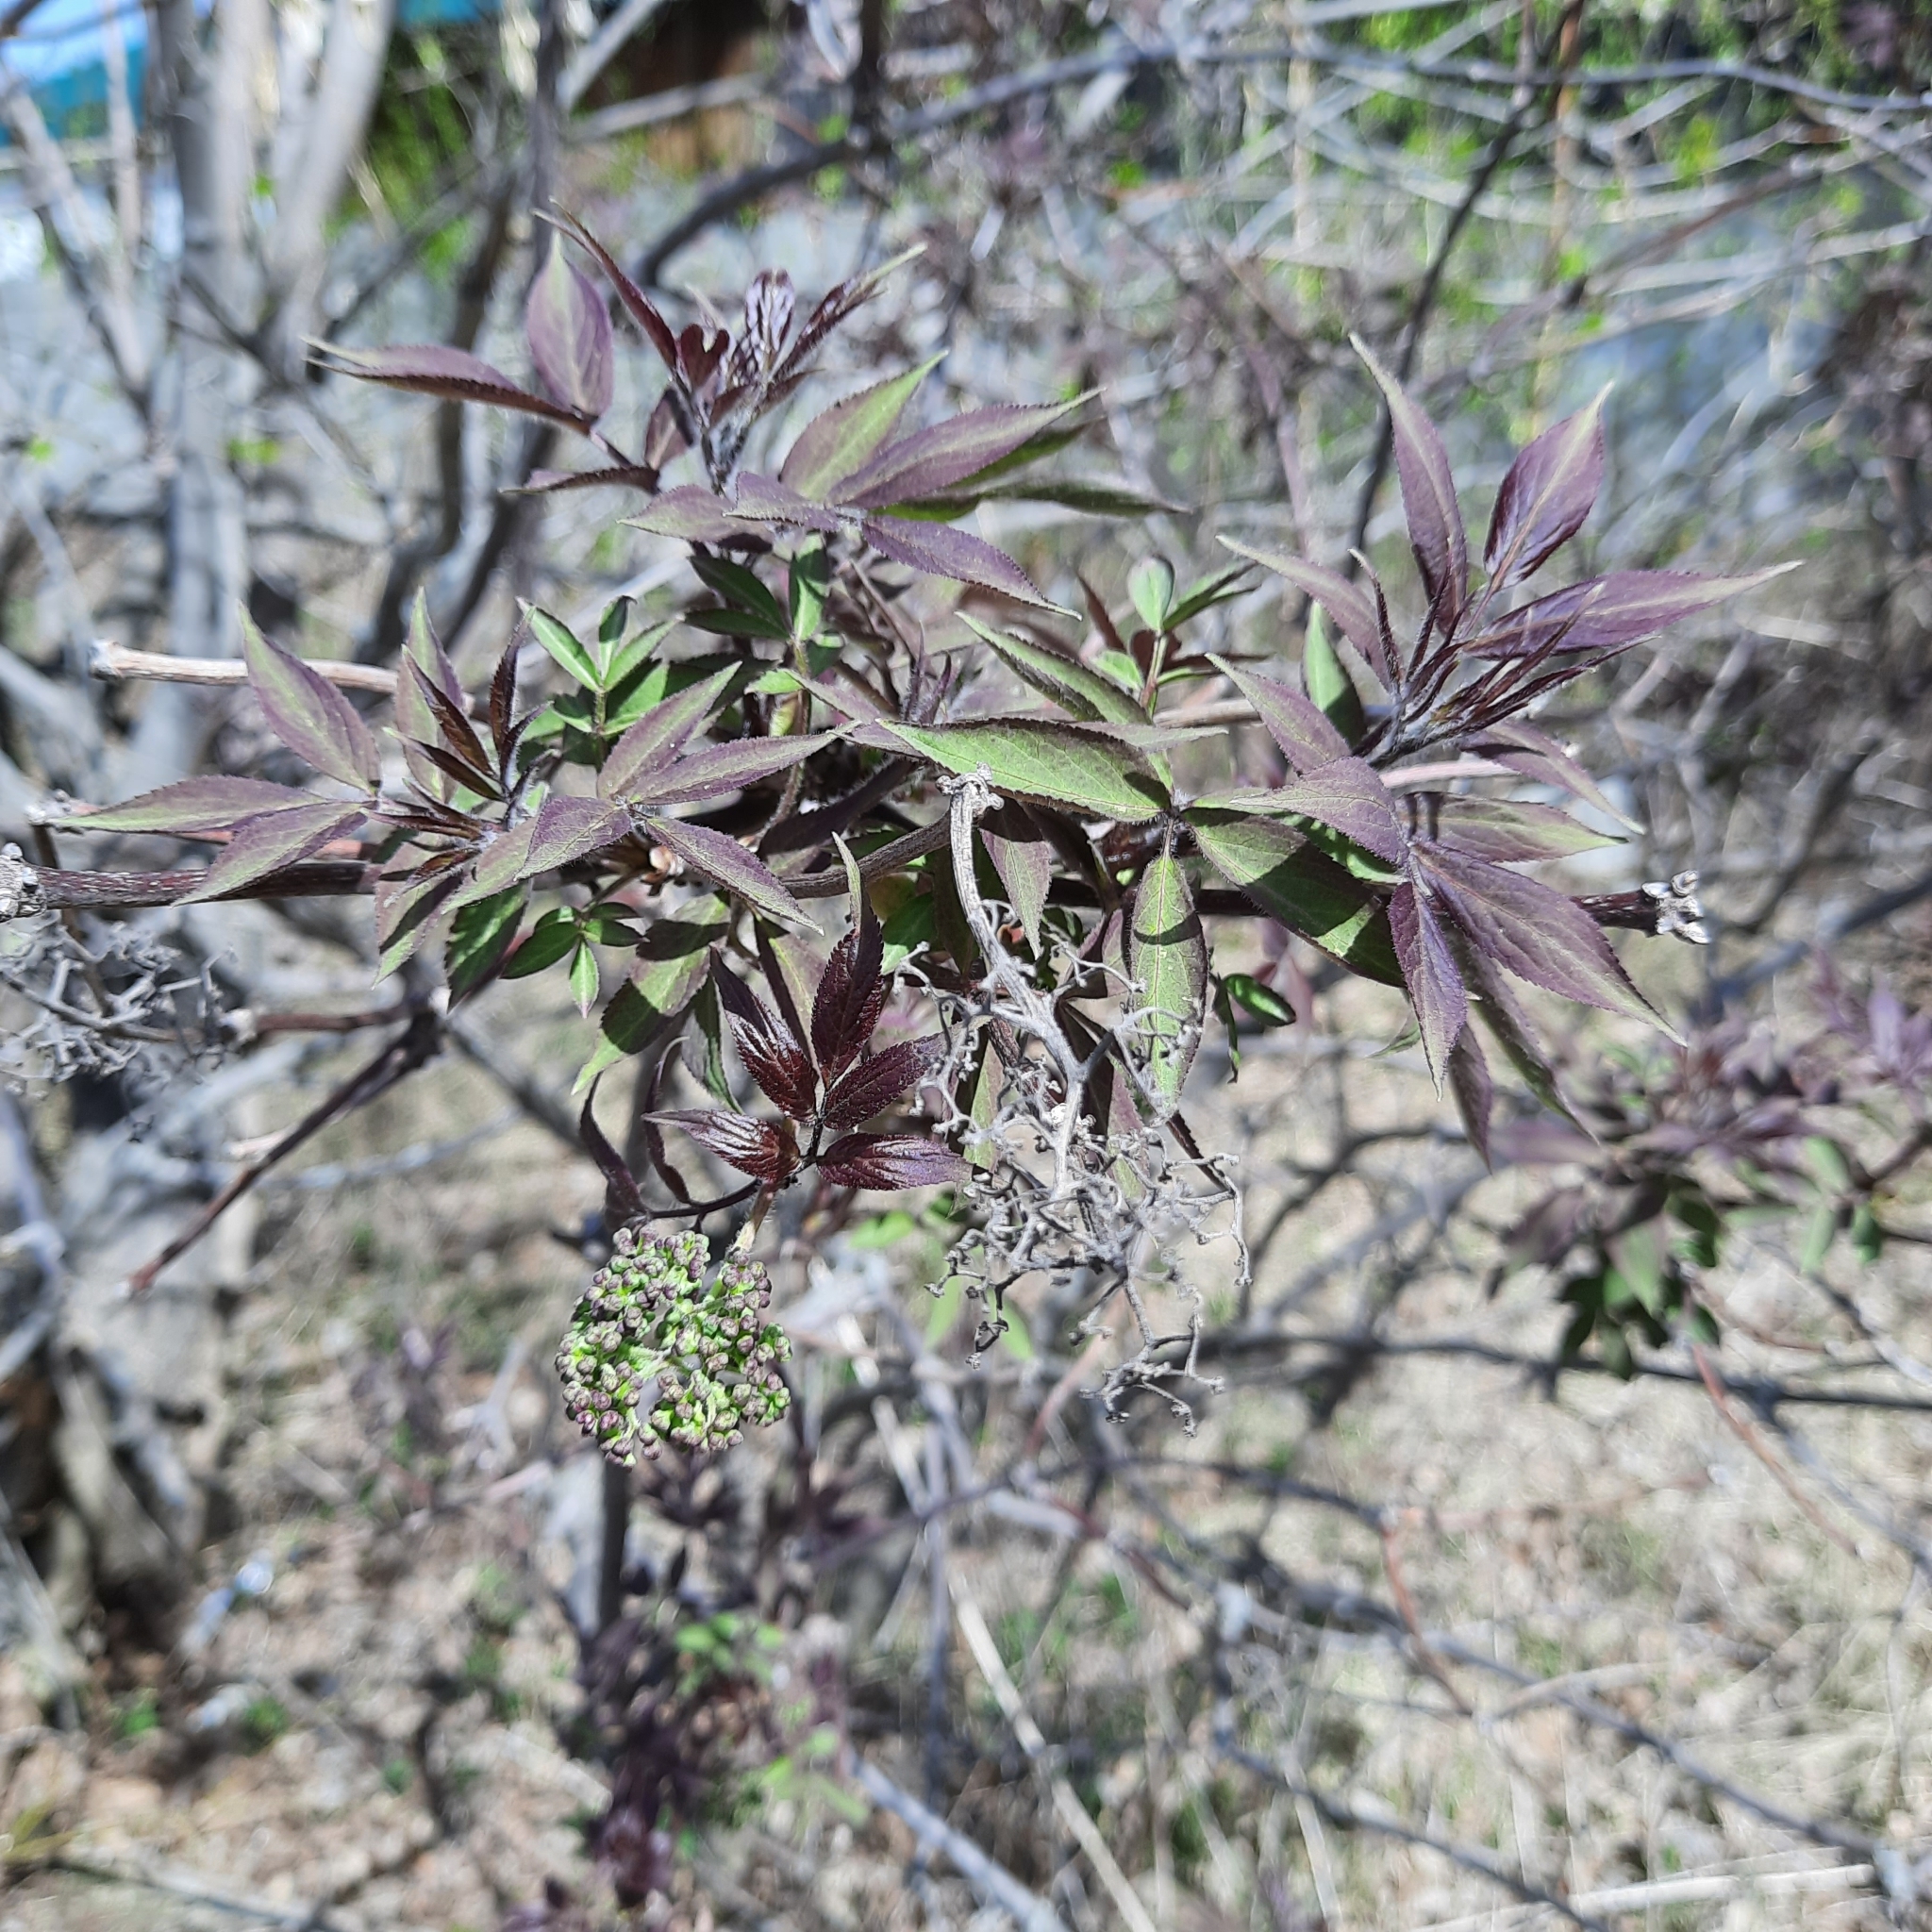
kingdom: Plantae
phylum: Tracheophyta
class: Magnoliopsida
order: Dipsacales
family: Viburnaceae
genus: Sambucus
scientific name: Sambucus sibirica
